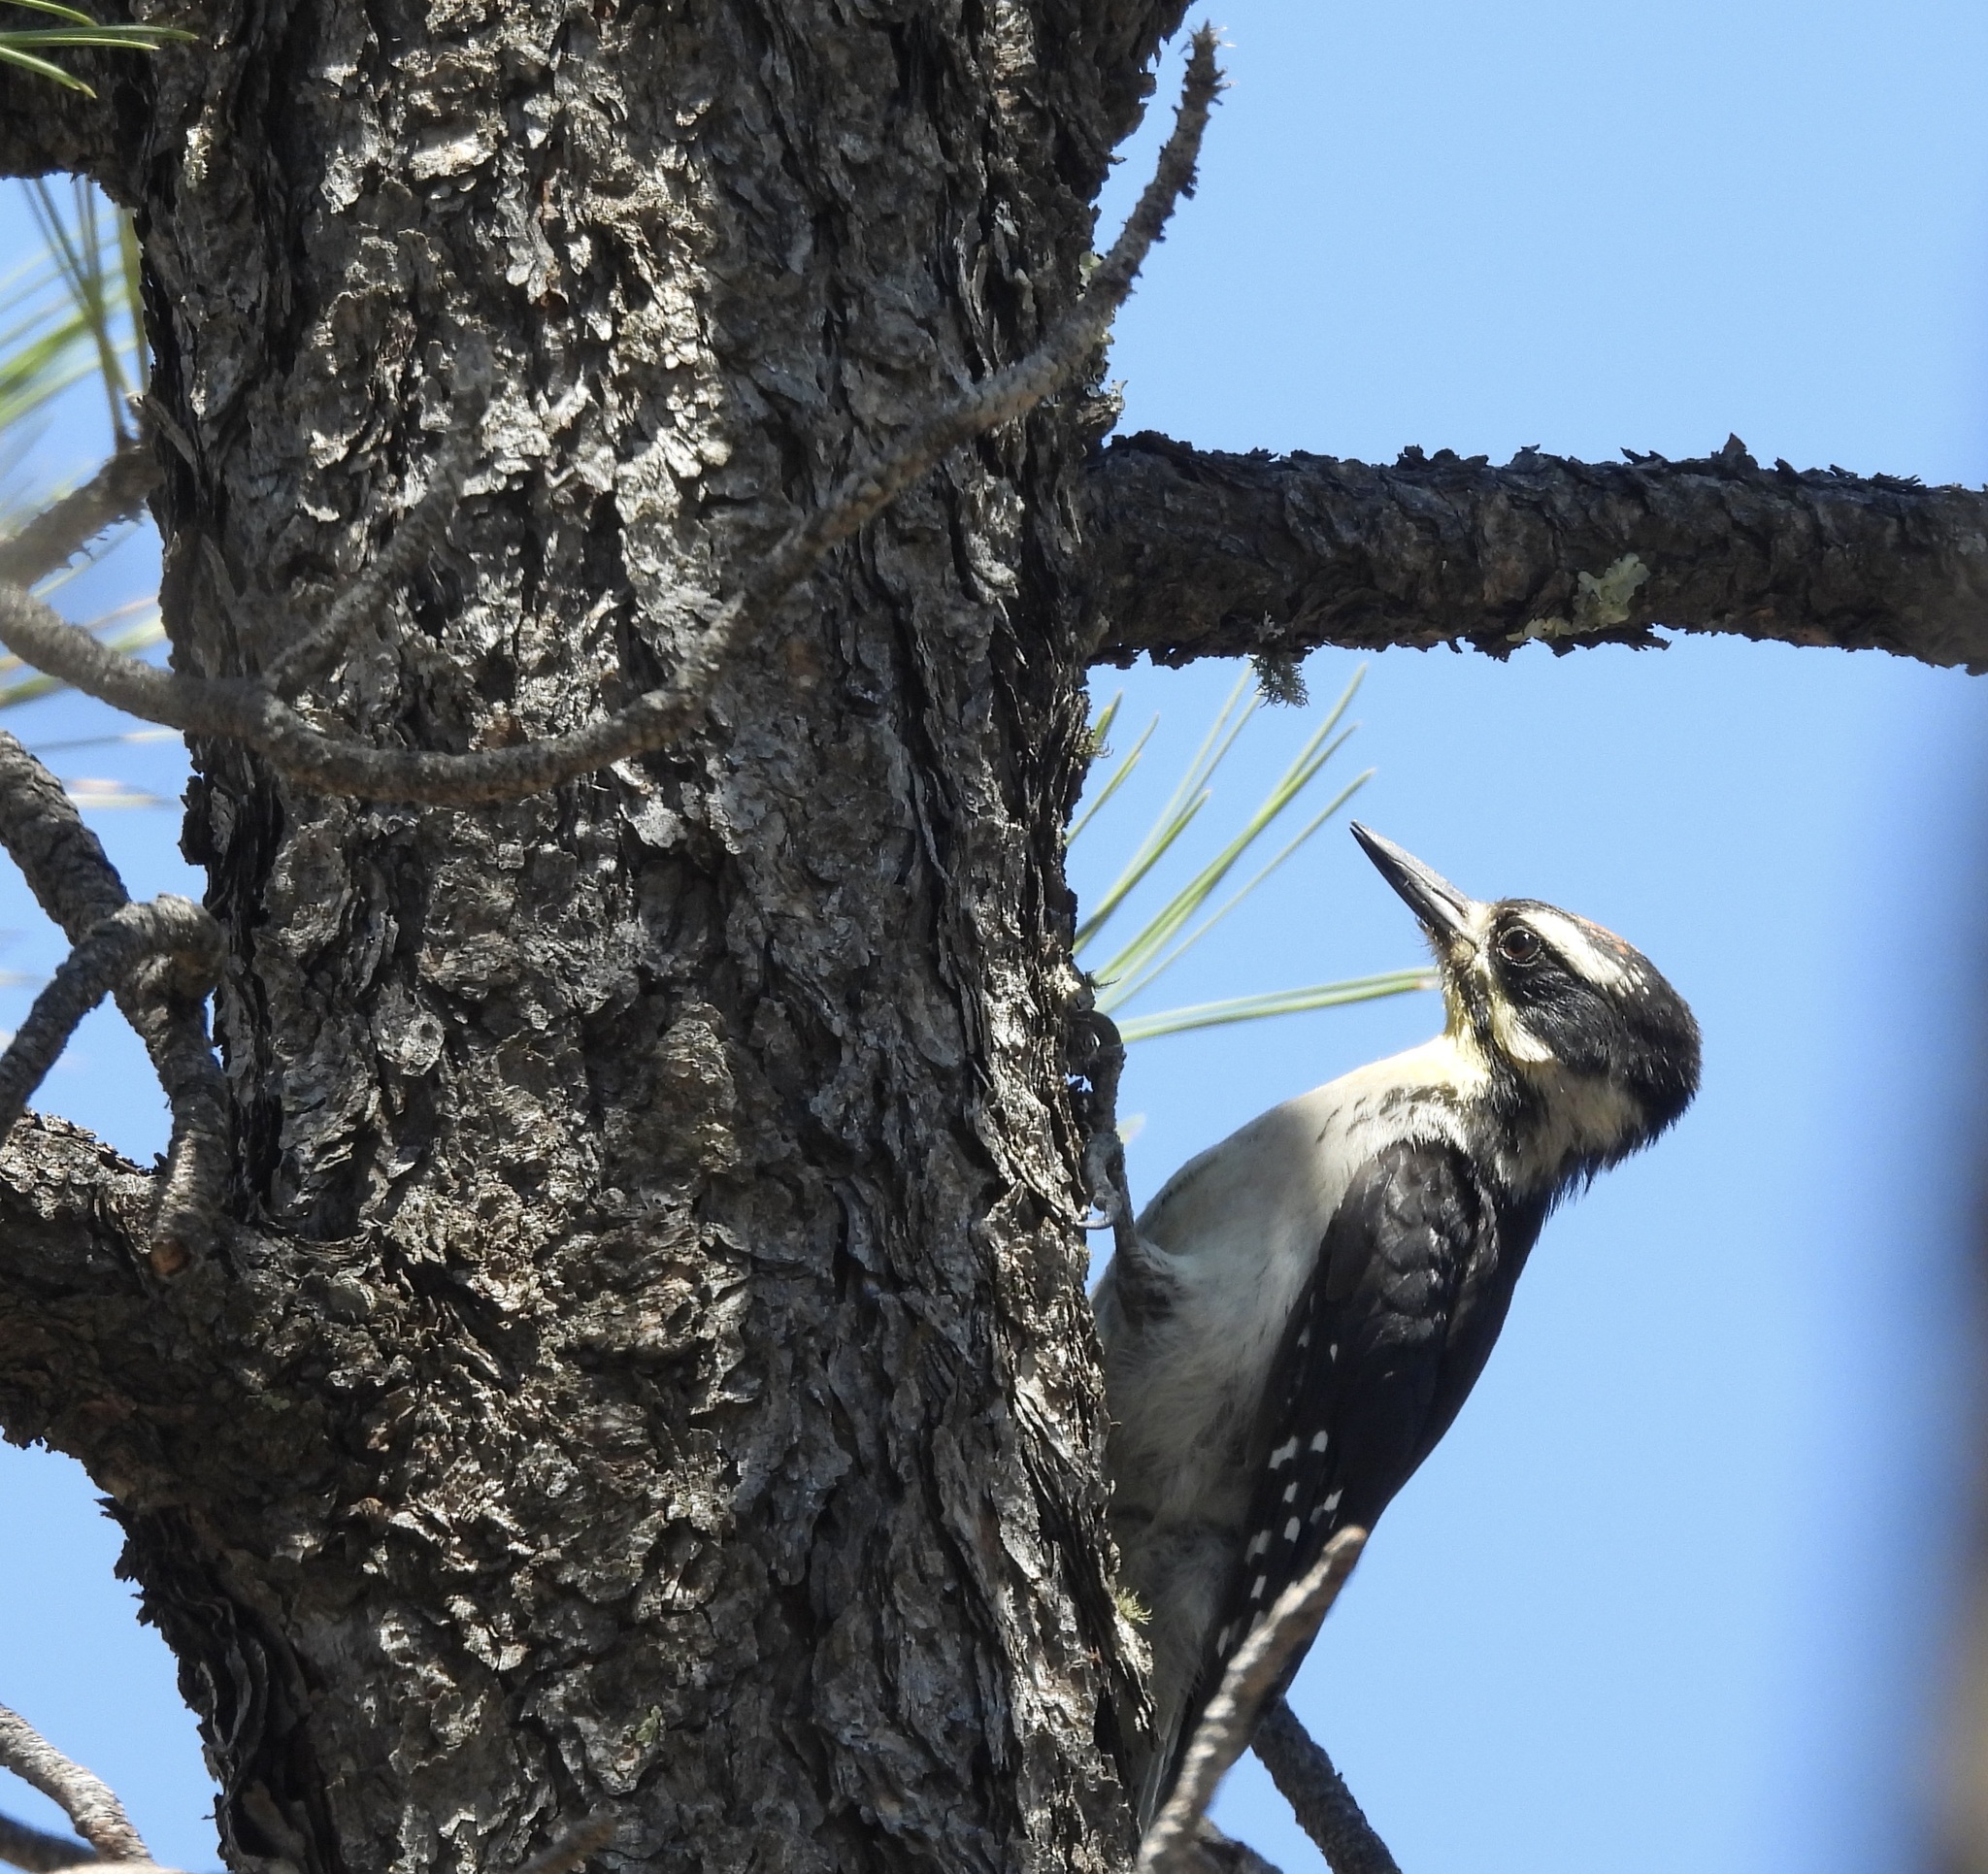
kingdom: Animalia
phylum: Chordata
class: Aves
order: Piciformes
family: Picidae
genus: Leuconotopicus
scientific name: Leuconotopicus villosus
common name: Hairy woodpecker
